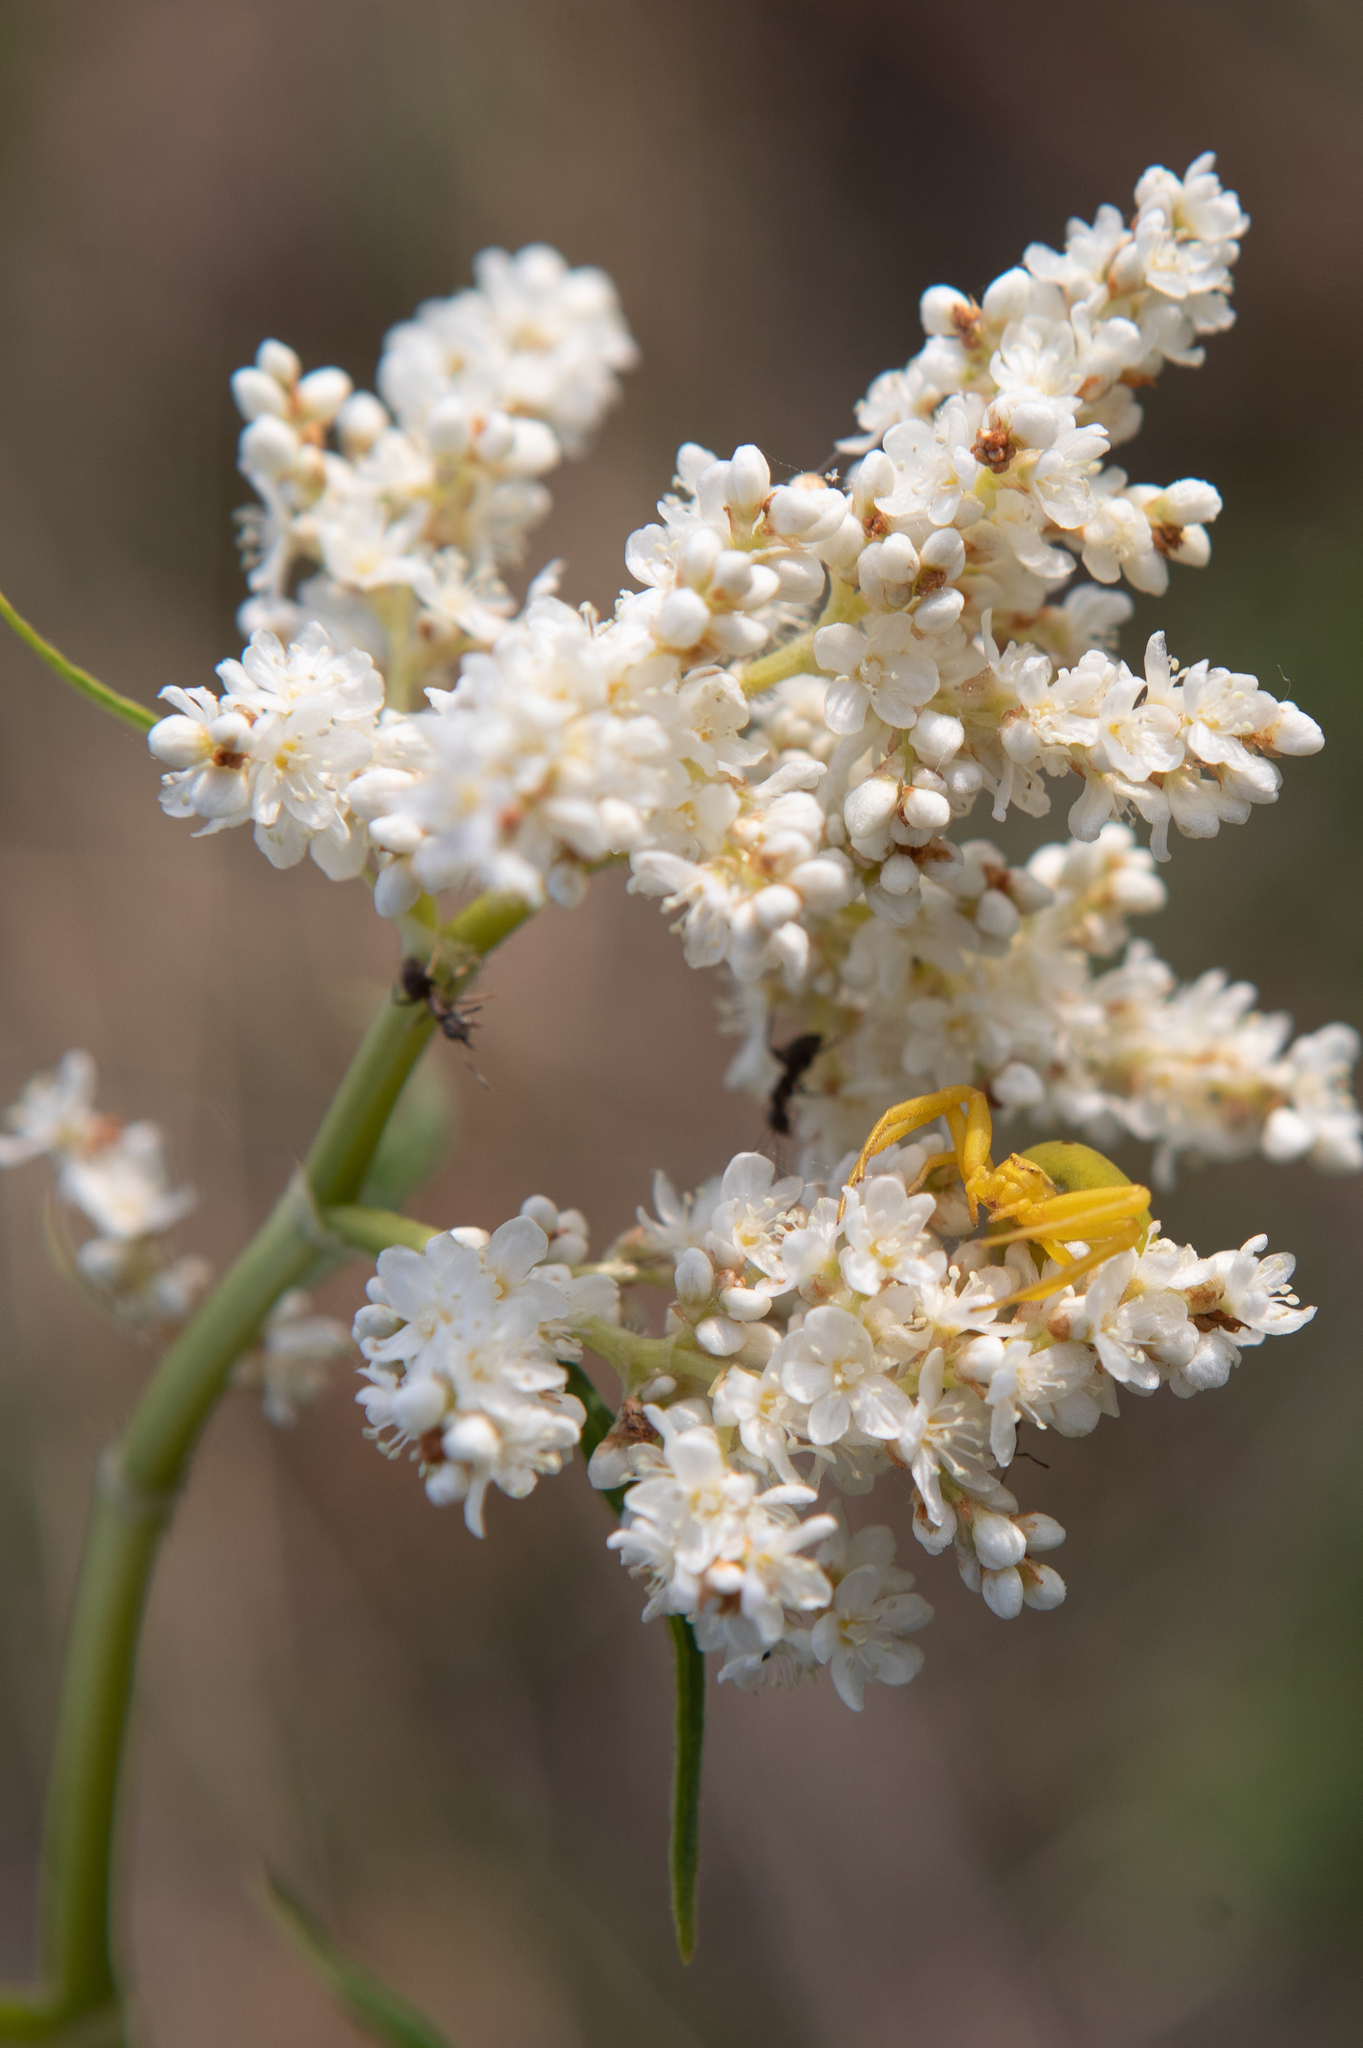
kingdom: Animalia
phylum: Arthropoda
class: Arachnida
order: Araneae
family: Thomisidae
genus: Misumena
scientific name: Misumena vatia
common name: Goldenrod crab spider
